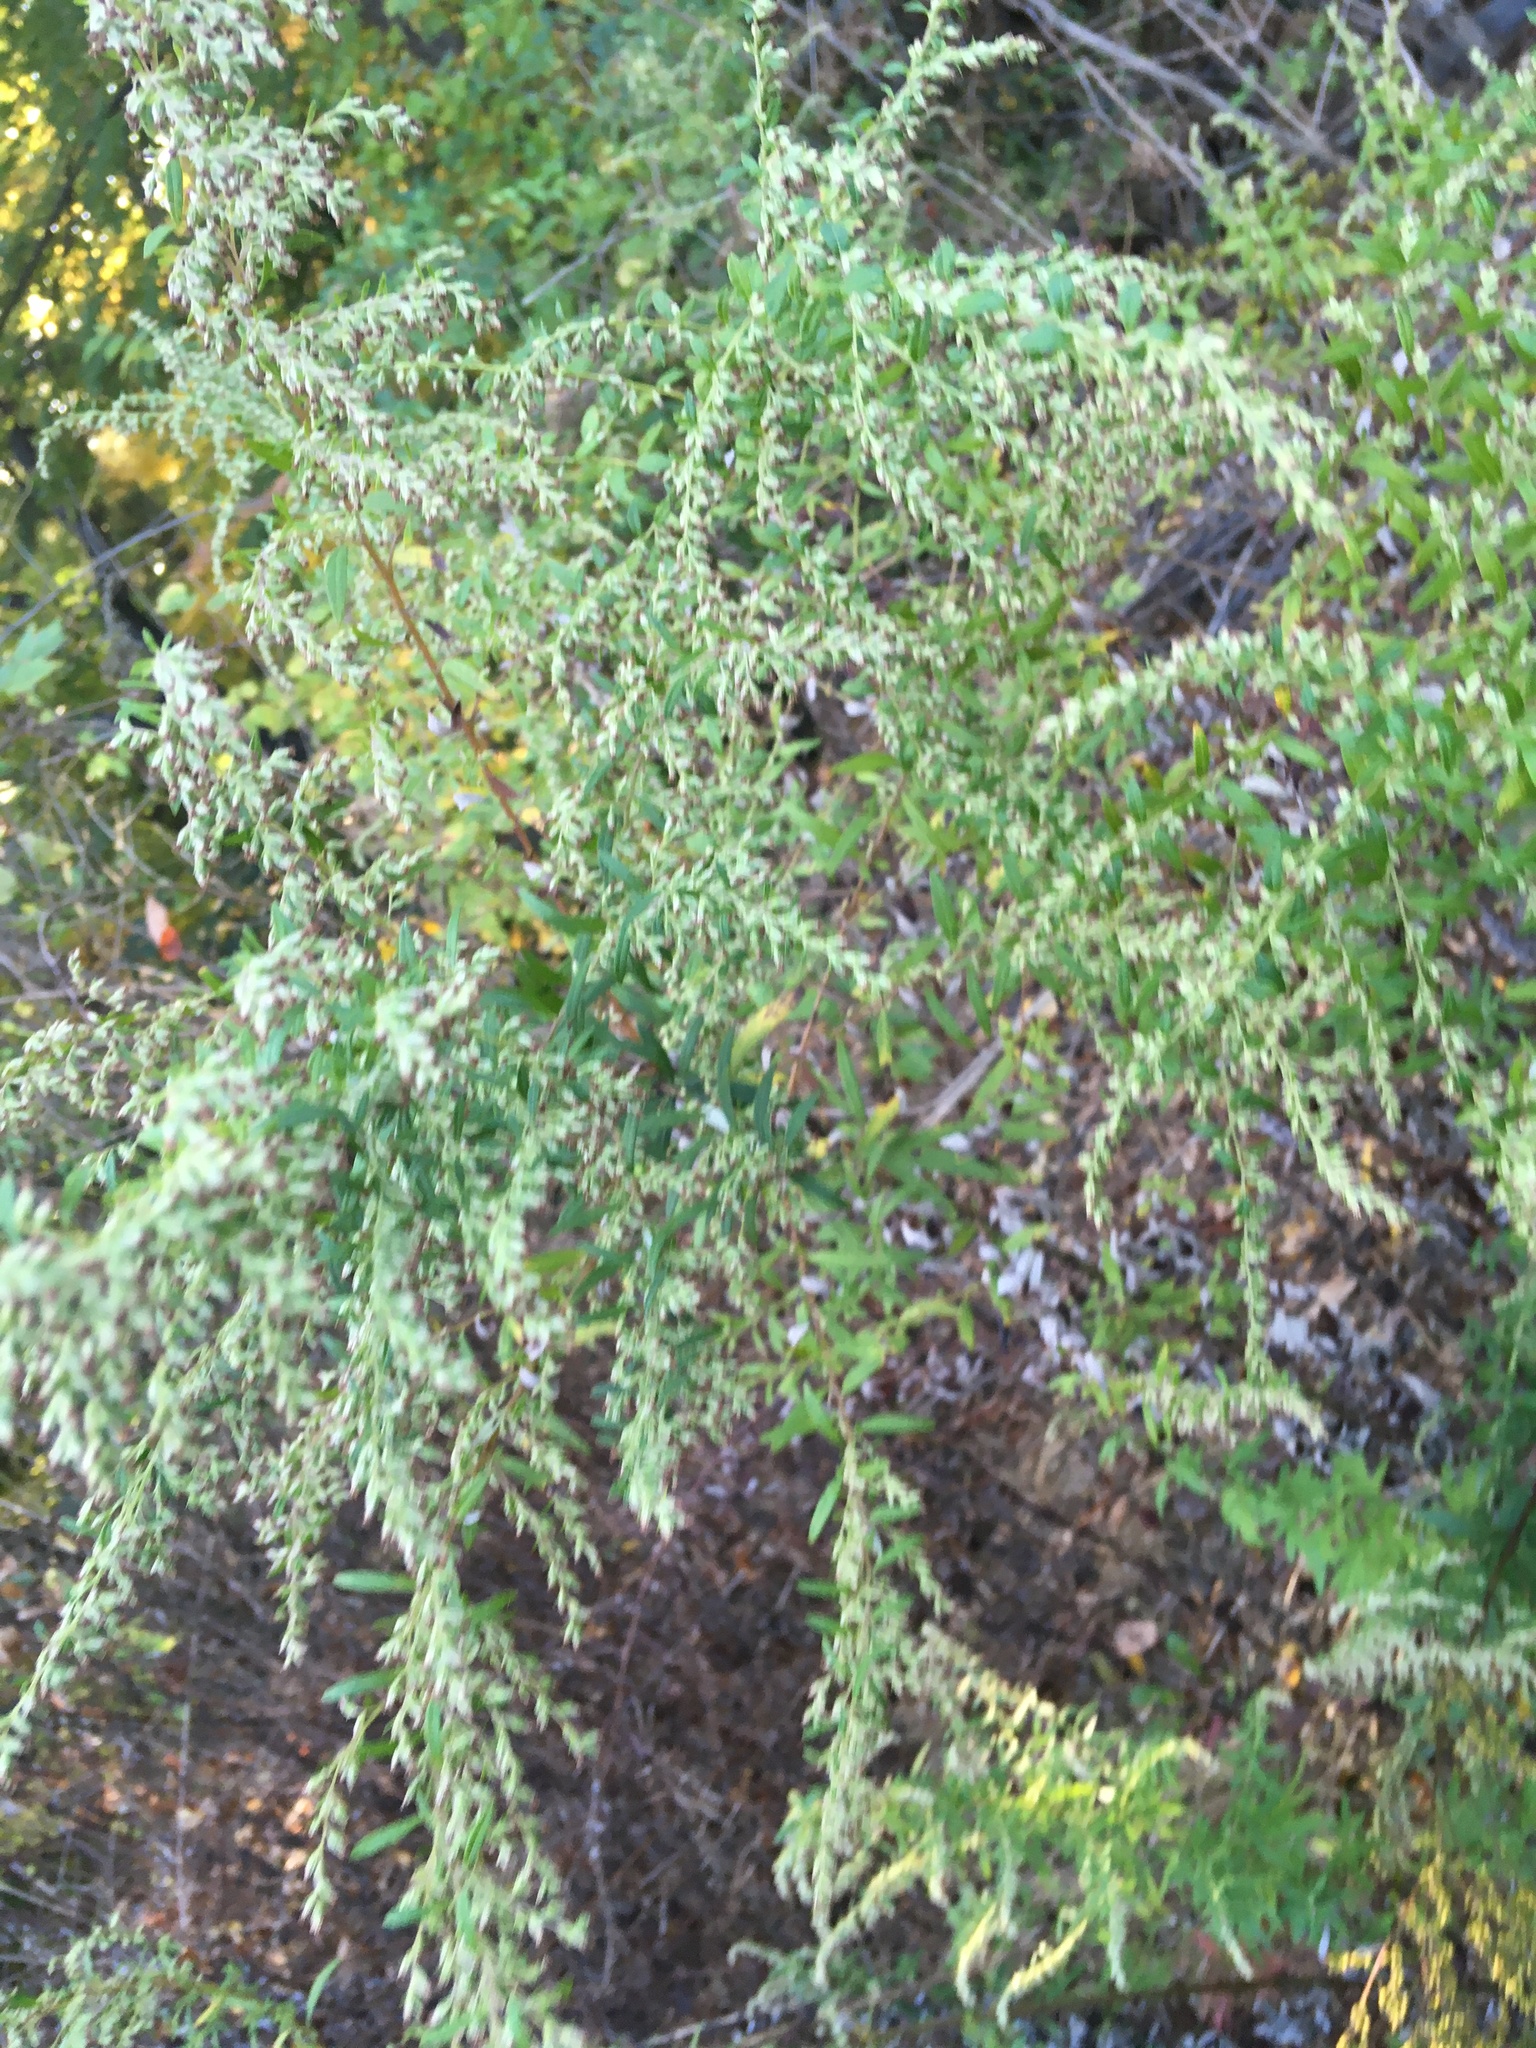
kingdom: Plantae
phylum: Tracheophyta
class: Magnoliopsida
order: Asterales
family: Asteraceae
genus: Artemisia
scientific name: Artemisia vulgaris
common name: Mugwort
